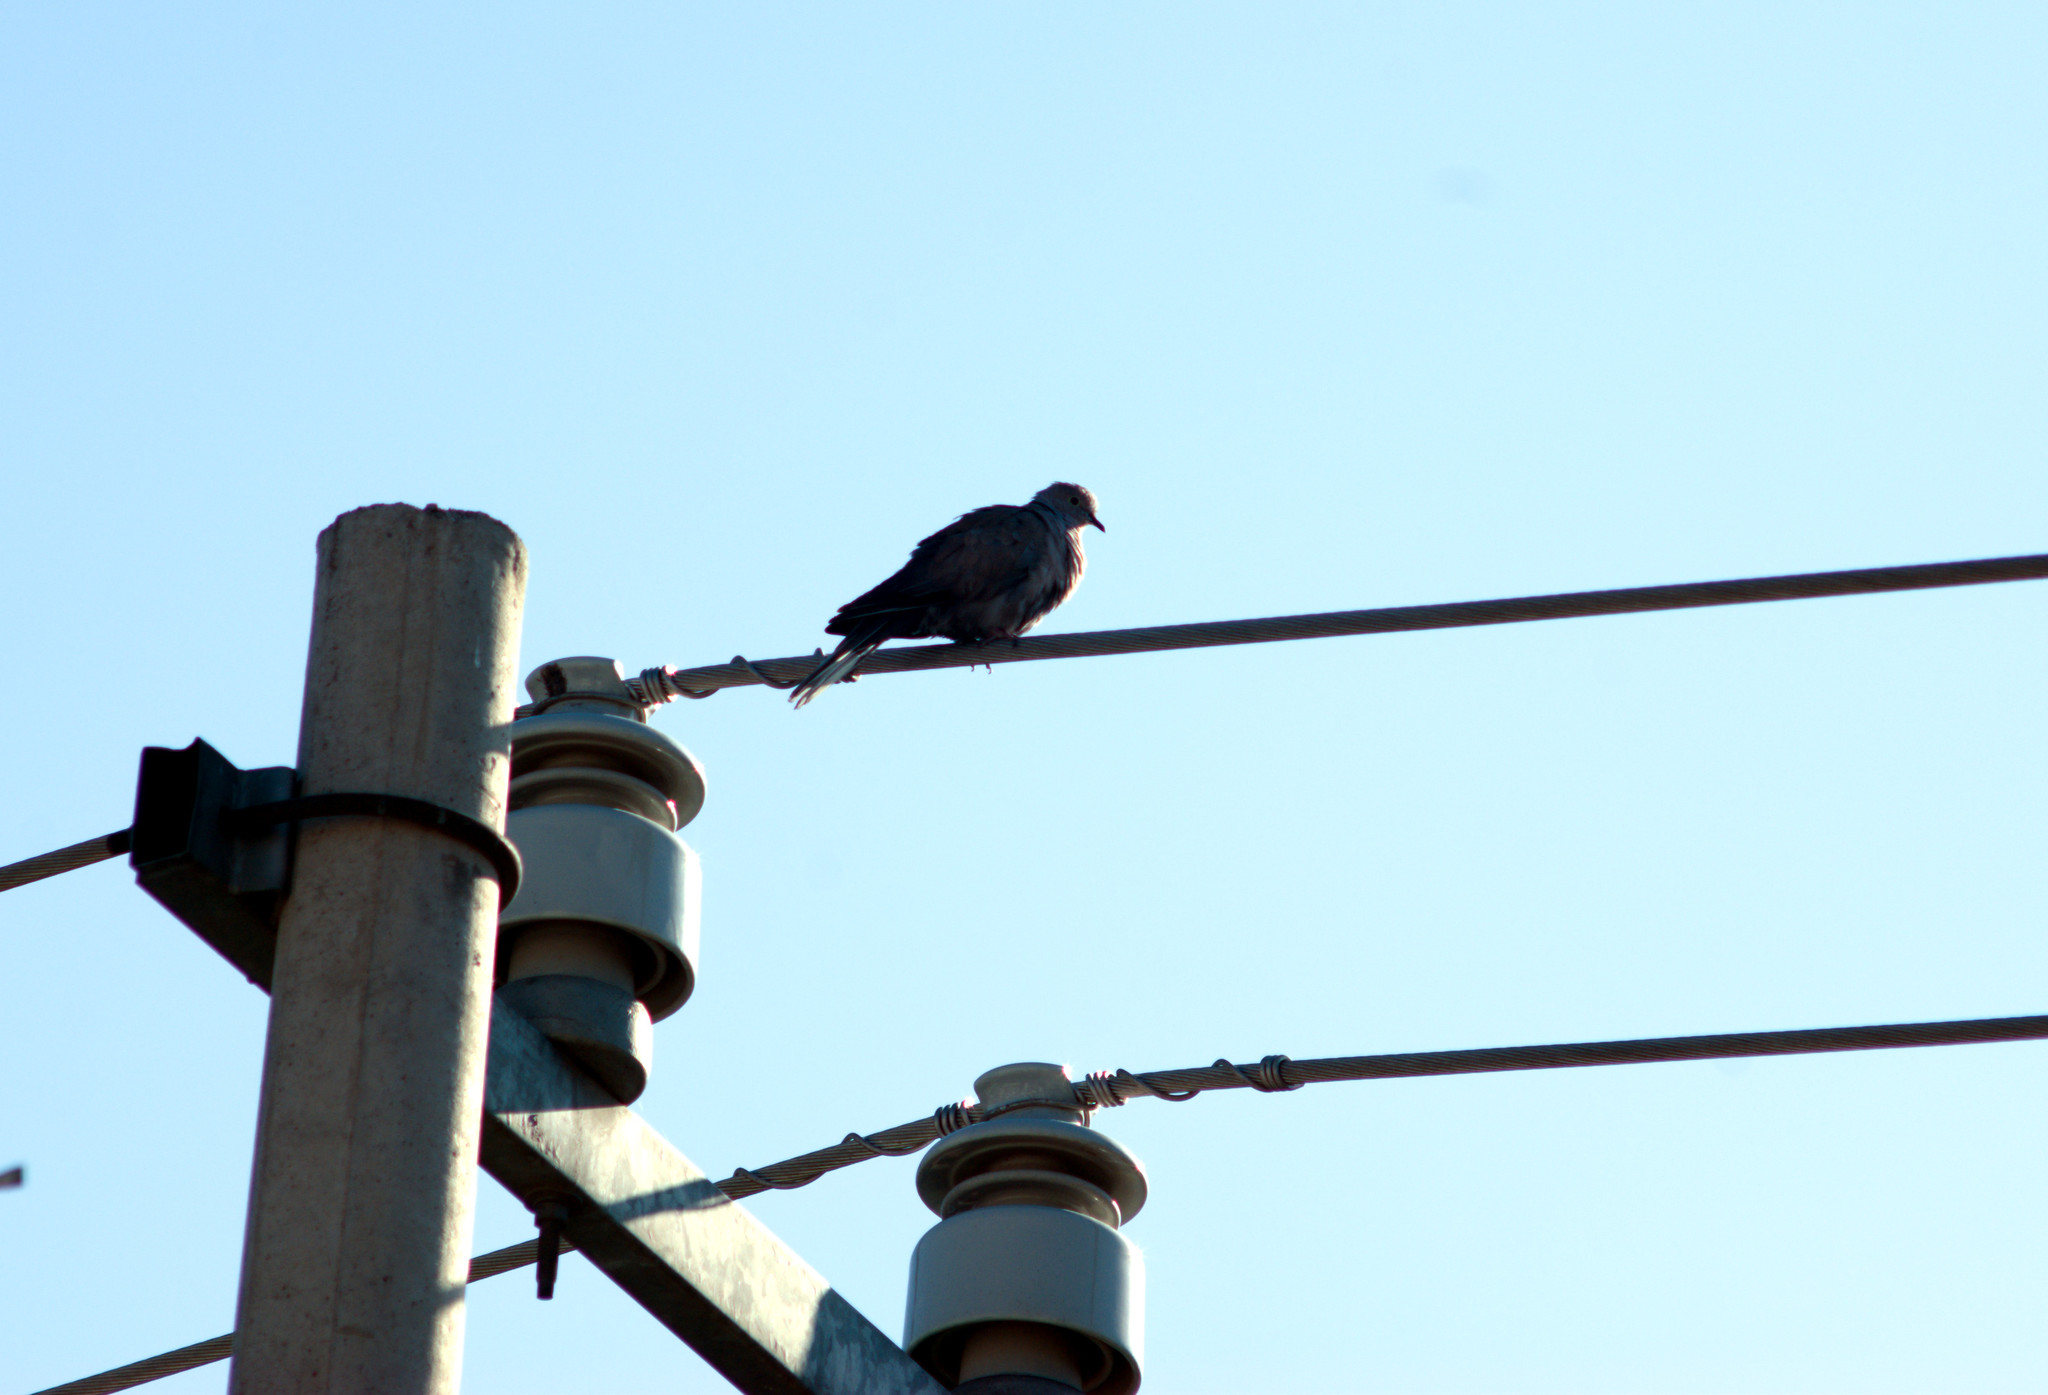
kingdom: Animalia
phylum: Chordata
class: Aves
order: Columbiformes
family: Columbidae
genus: Streptopelia
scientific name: Streptopelia decaocto
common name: Eurasian collared dove
